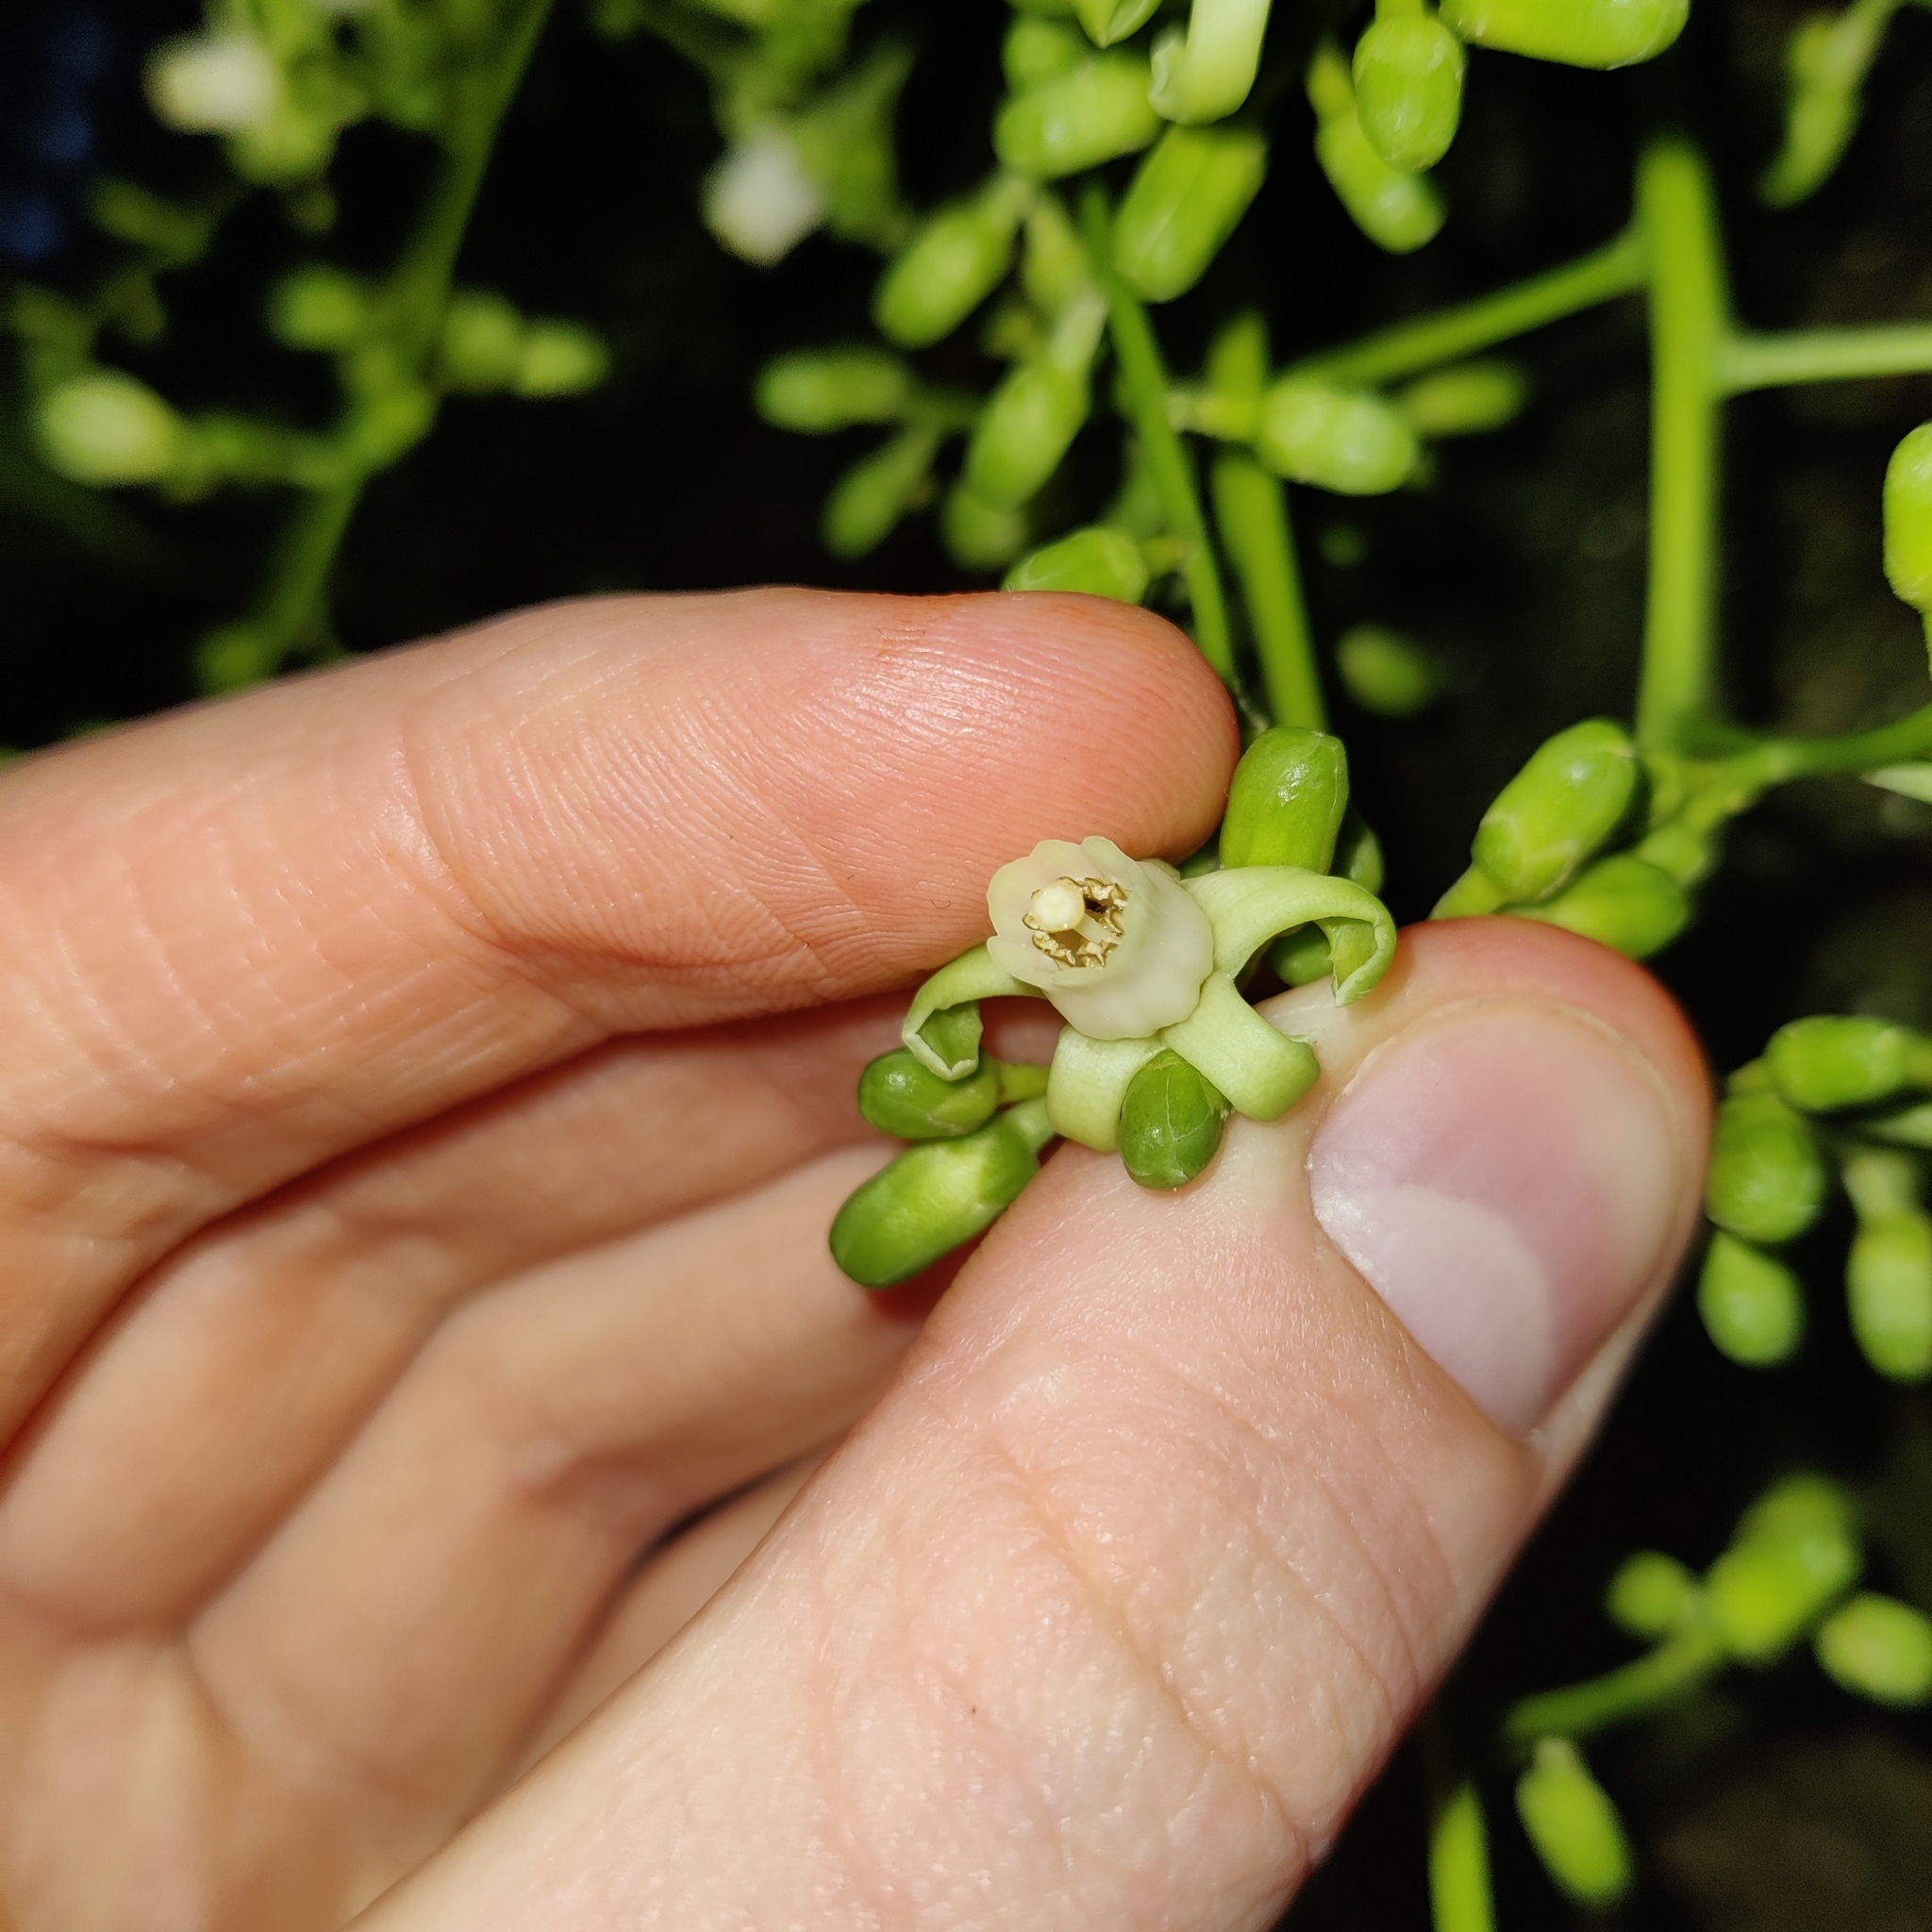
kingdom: Plantae
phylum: Tracheophyta
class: Magnoliopsida
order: Sapindales
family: Meliaceae
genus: Didymocheton
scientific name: Didymocheton spectabilis
